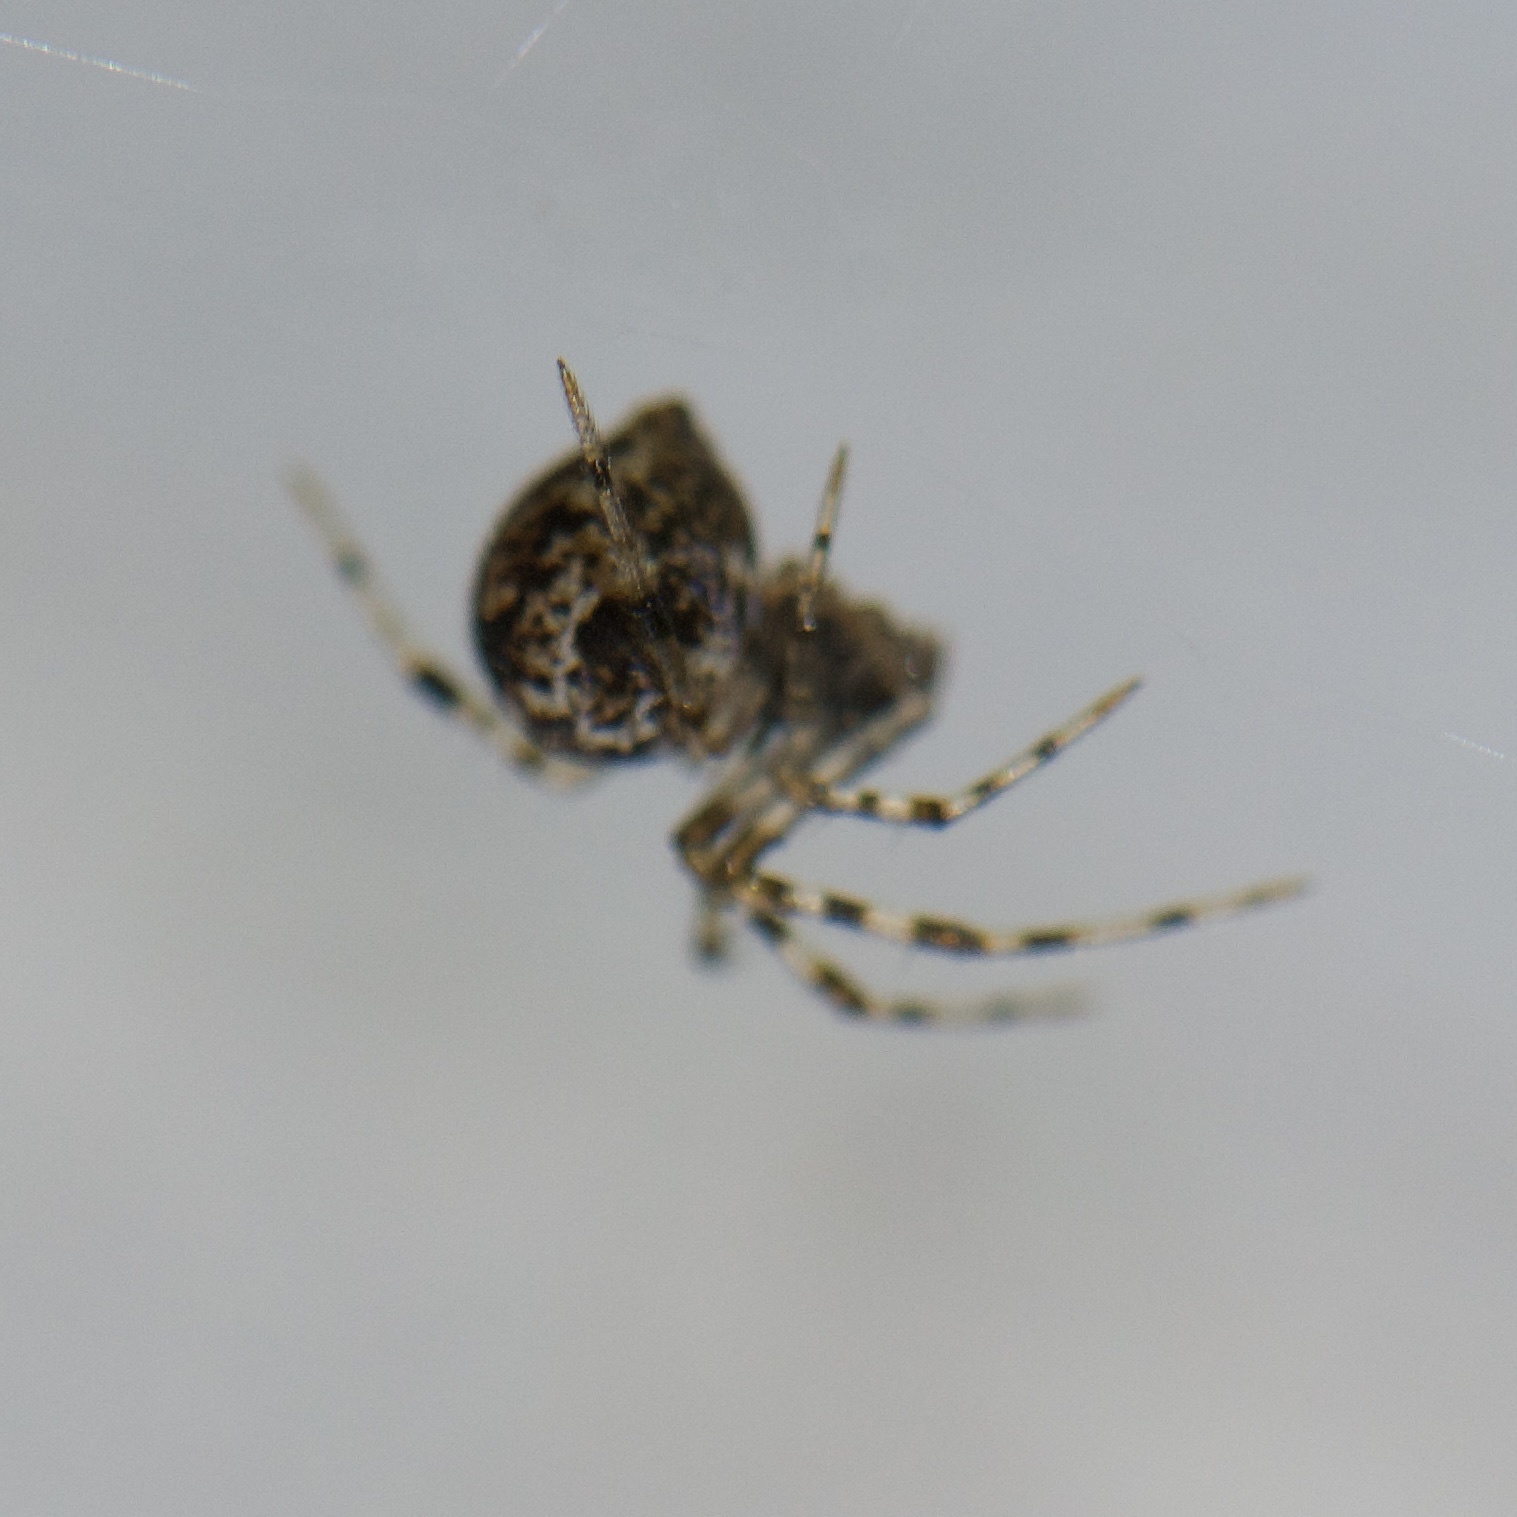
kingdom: Animalia
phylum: Arthropoda
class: Arachnida
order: Araneae
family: Theridiidae
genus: Parasteatoda
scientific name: Parasteatoda tepidariorum
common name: Common house spider
